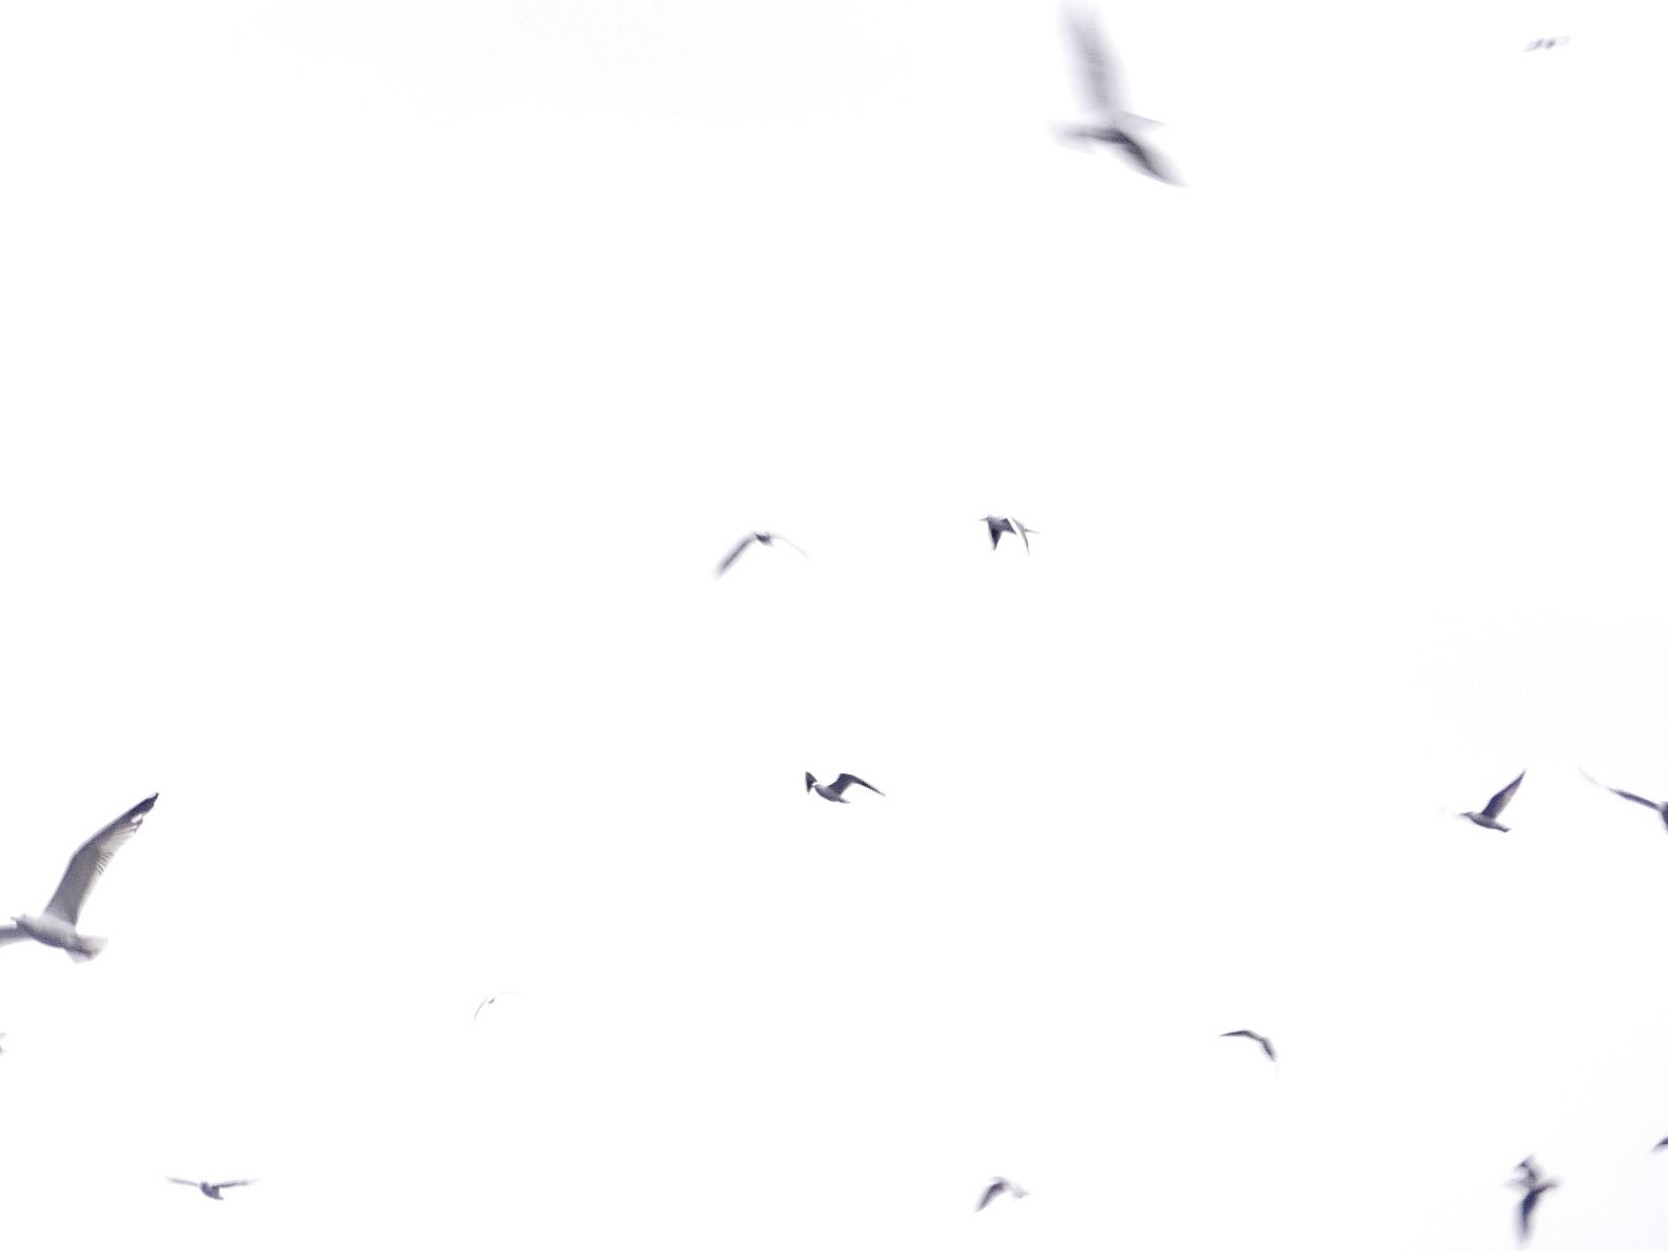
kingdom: Animalia
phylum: Chordata
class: Aves
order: Charadriiformes
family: Laridae
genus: Chroicocephalus
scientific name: Chroicocephalus ridibundus
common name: Black-headed gull
